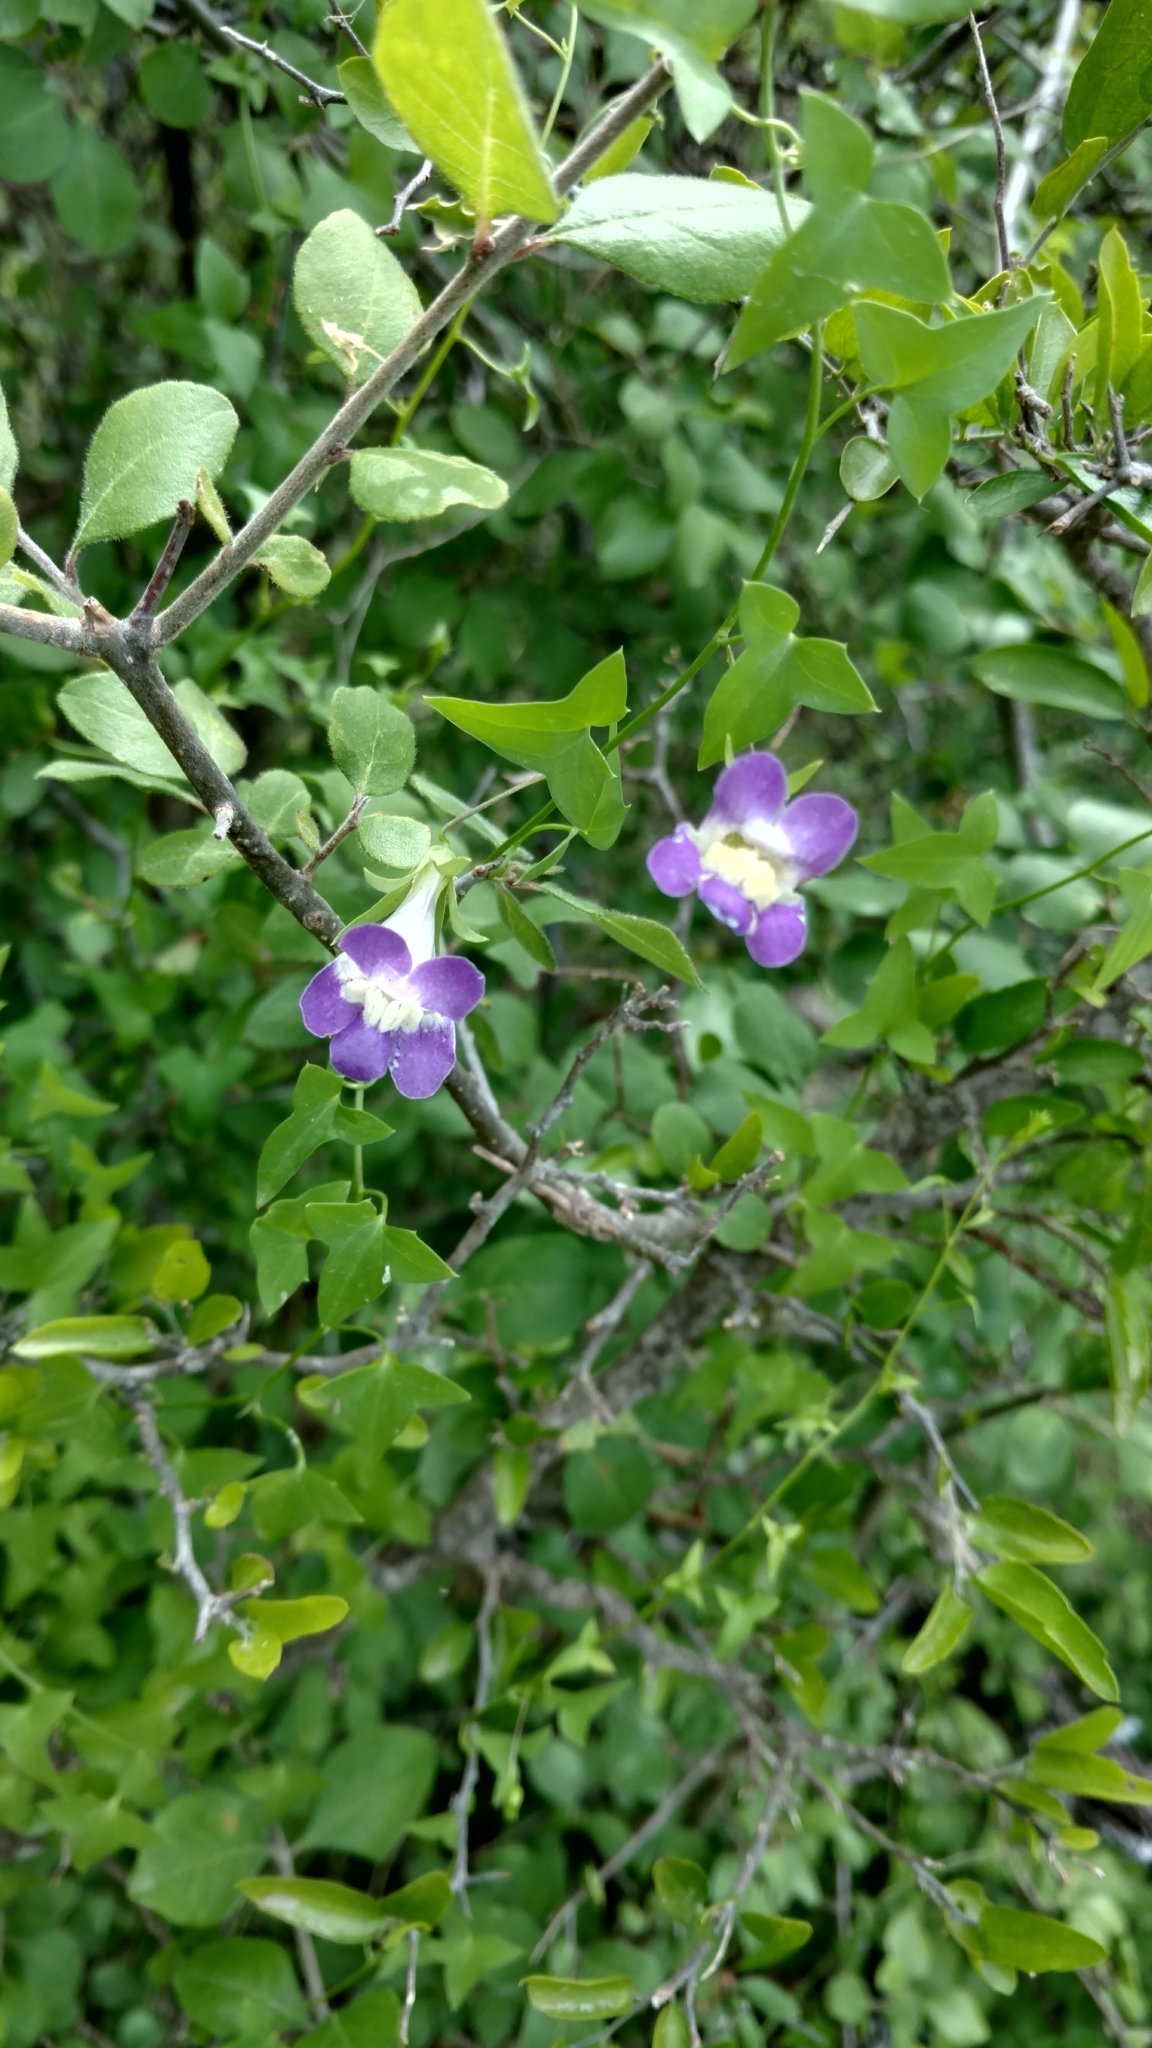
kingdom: Plantae
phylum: Tracheophyta
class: Magnoliopsida
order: Lamiales
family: Plantaginaceae
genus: Maurandella
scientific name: Maurandella antirrhiniflora
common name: Violet twining-snapdragon
